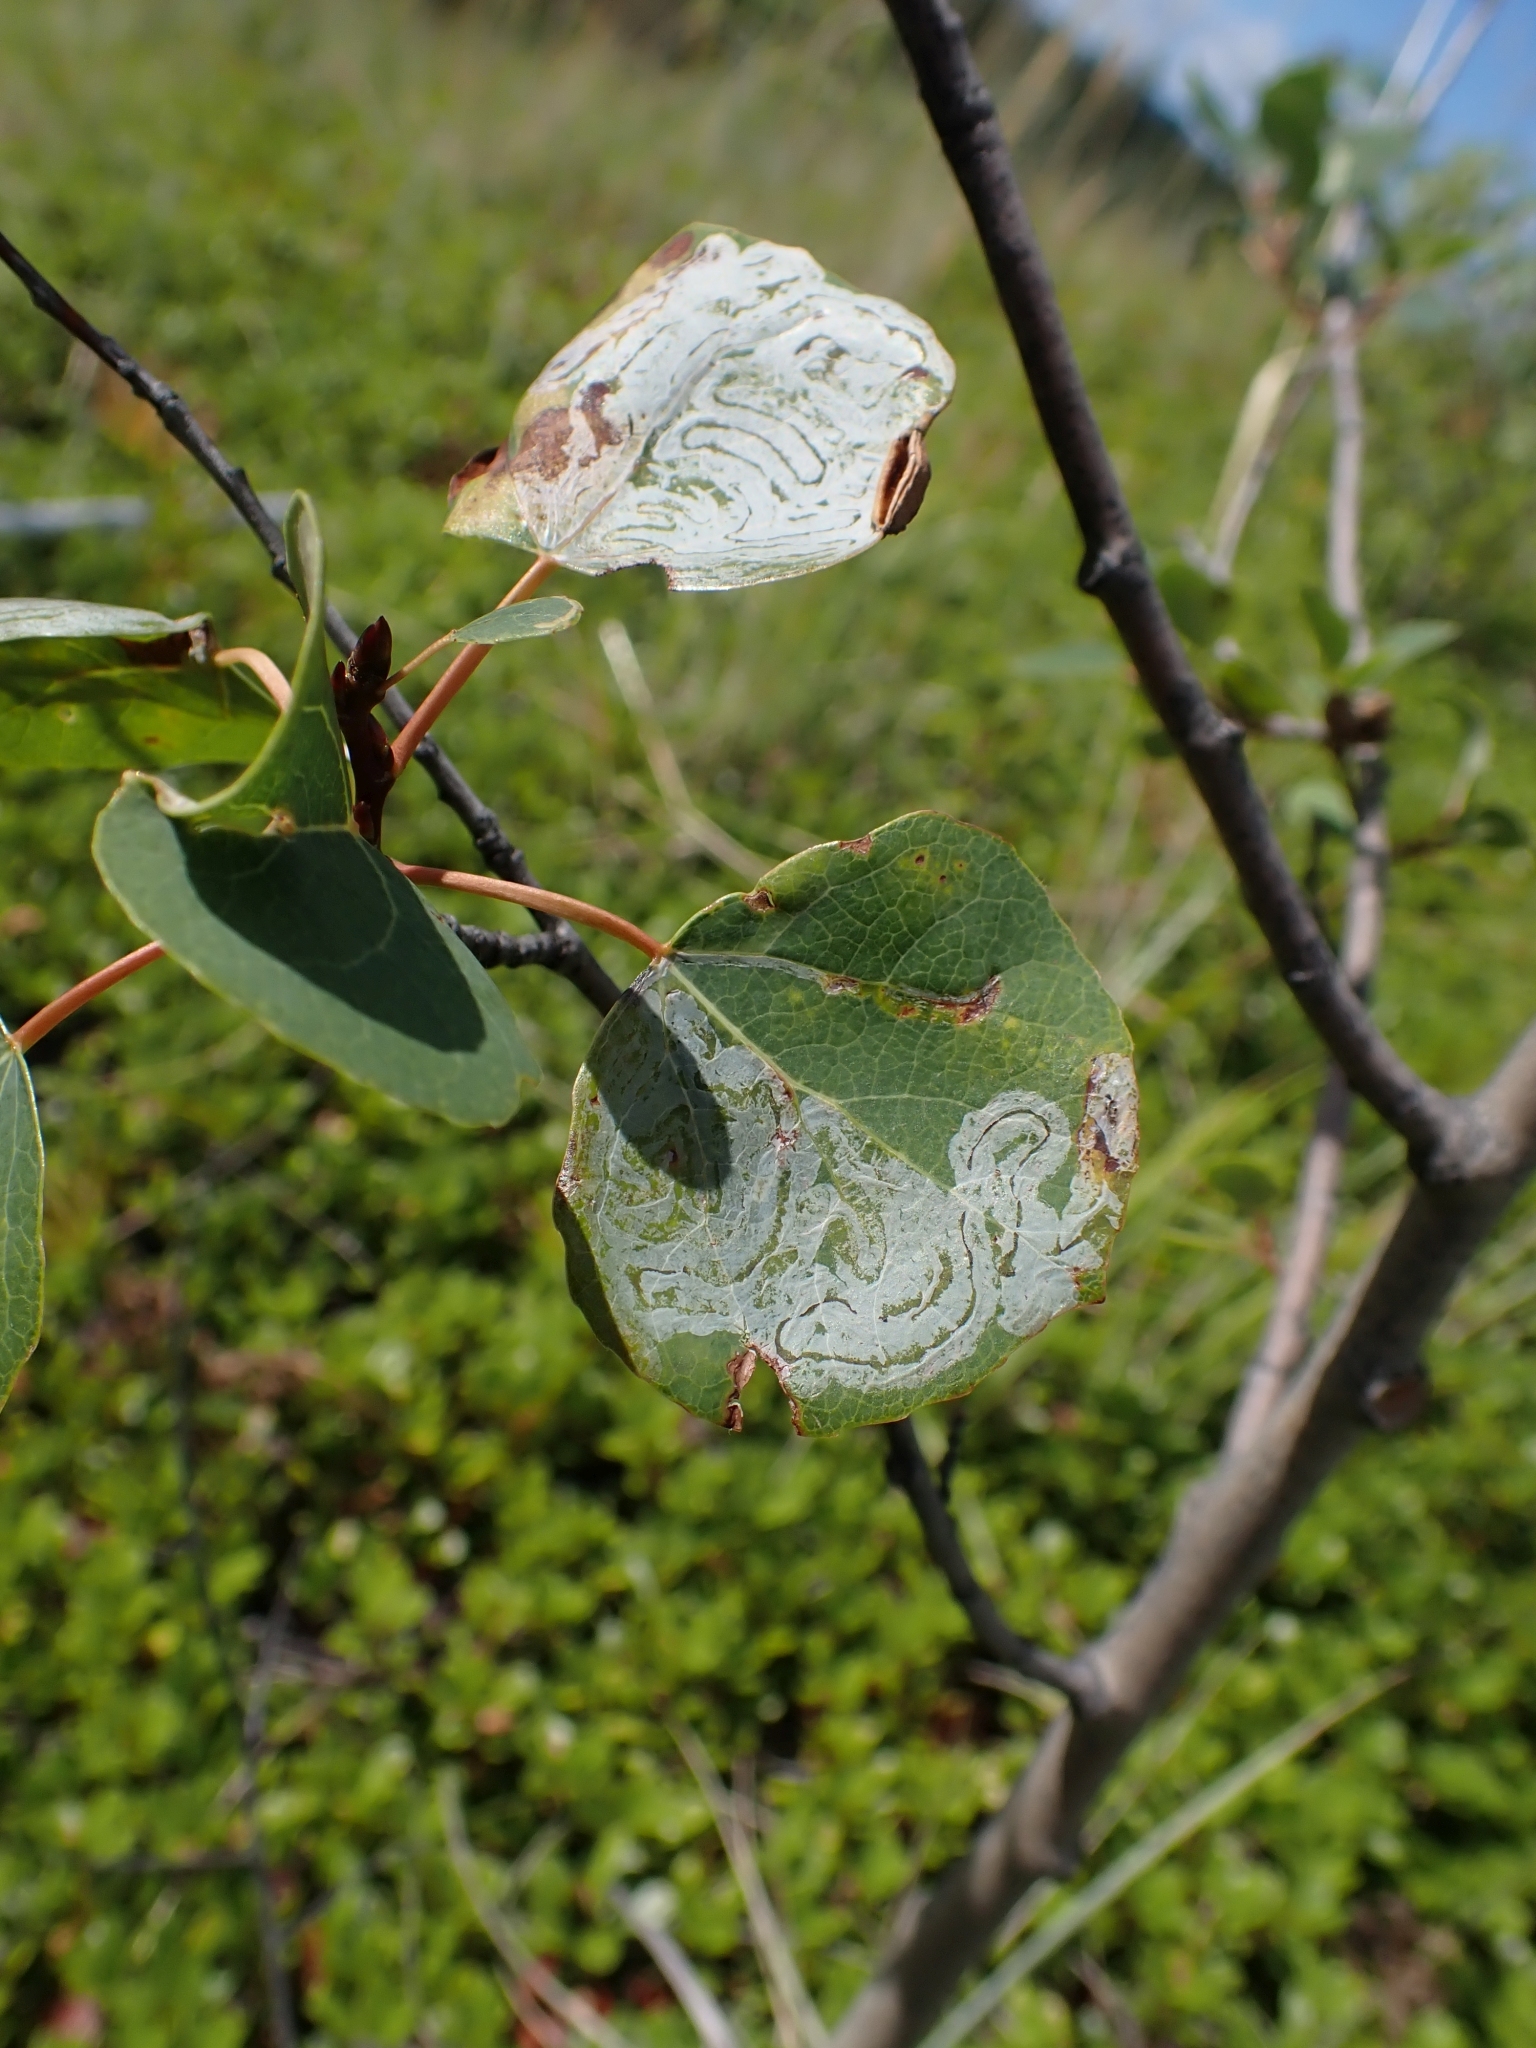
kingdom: Plantae
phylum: Tracheophyta
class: Magnoliopsida
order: Malpighiales
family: Salicaceae
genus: Populus
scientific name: Populus tremuloides
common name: Quaking aspen
